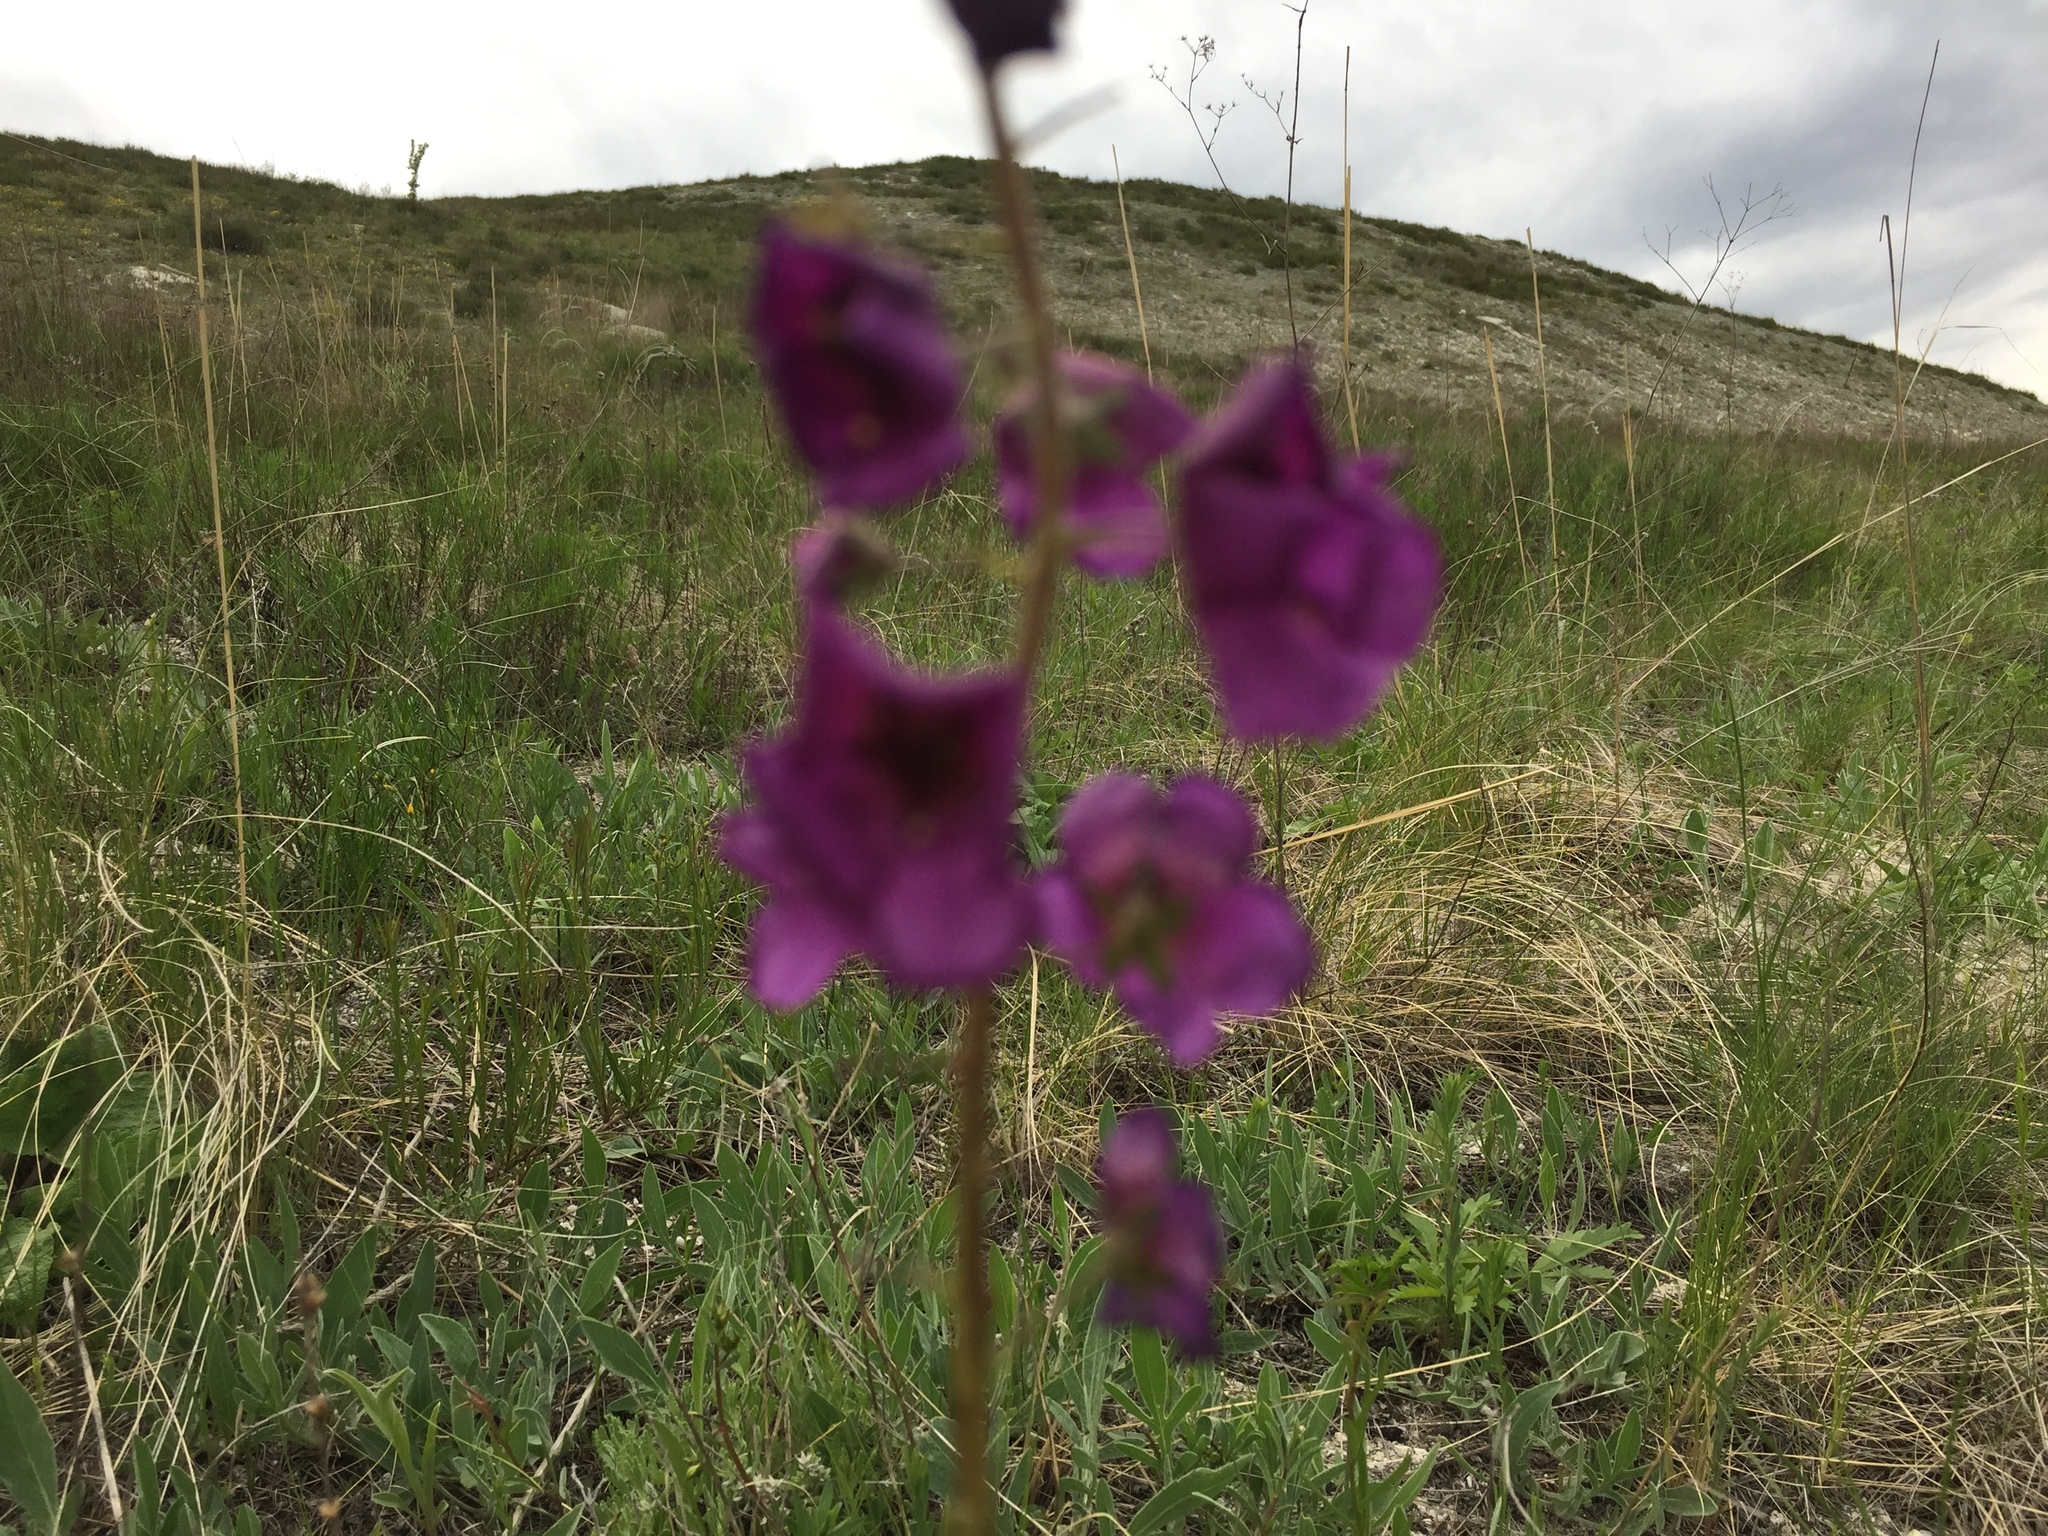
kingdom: Plantae
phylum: Tracheophyta
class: Magnoliopsida
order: Lamiales
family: Scrophulariaceae
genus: Verbascum
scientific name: Verbascum phoeniceum
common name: Purple mullein
